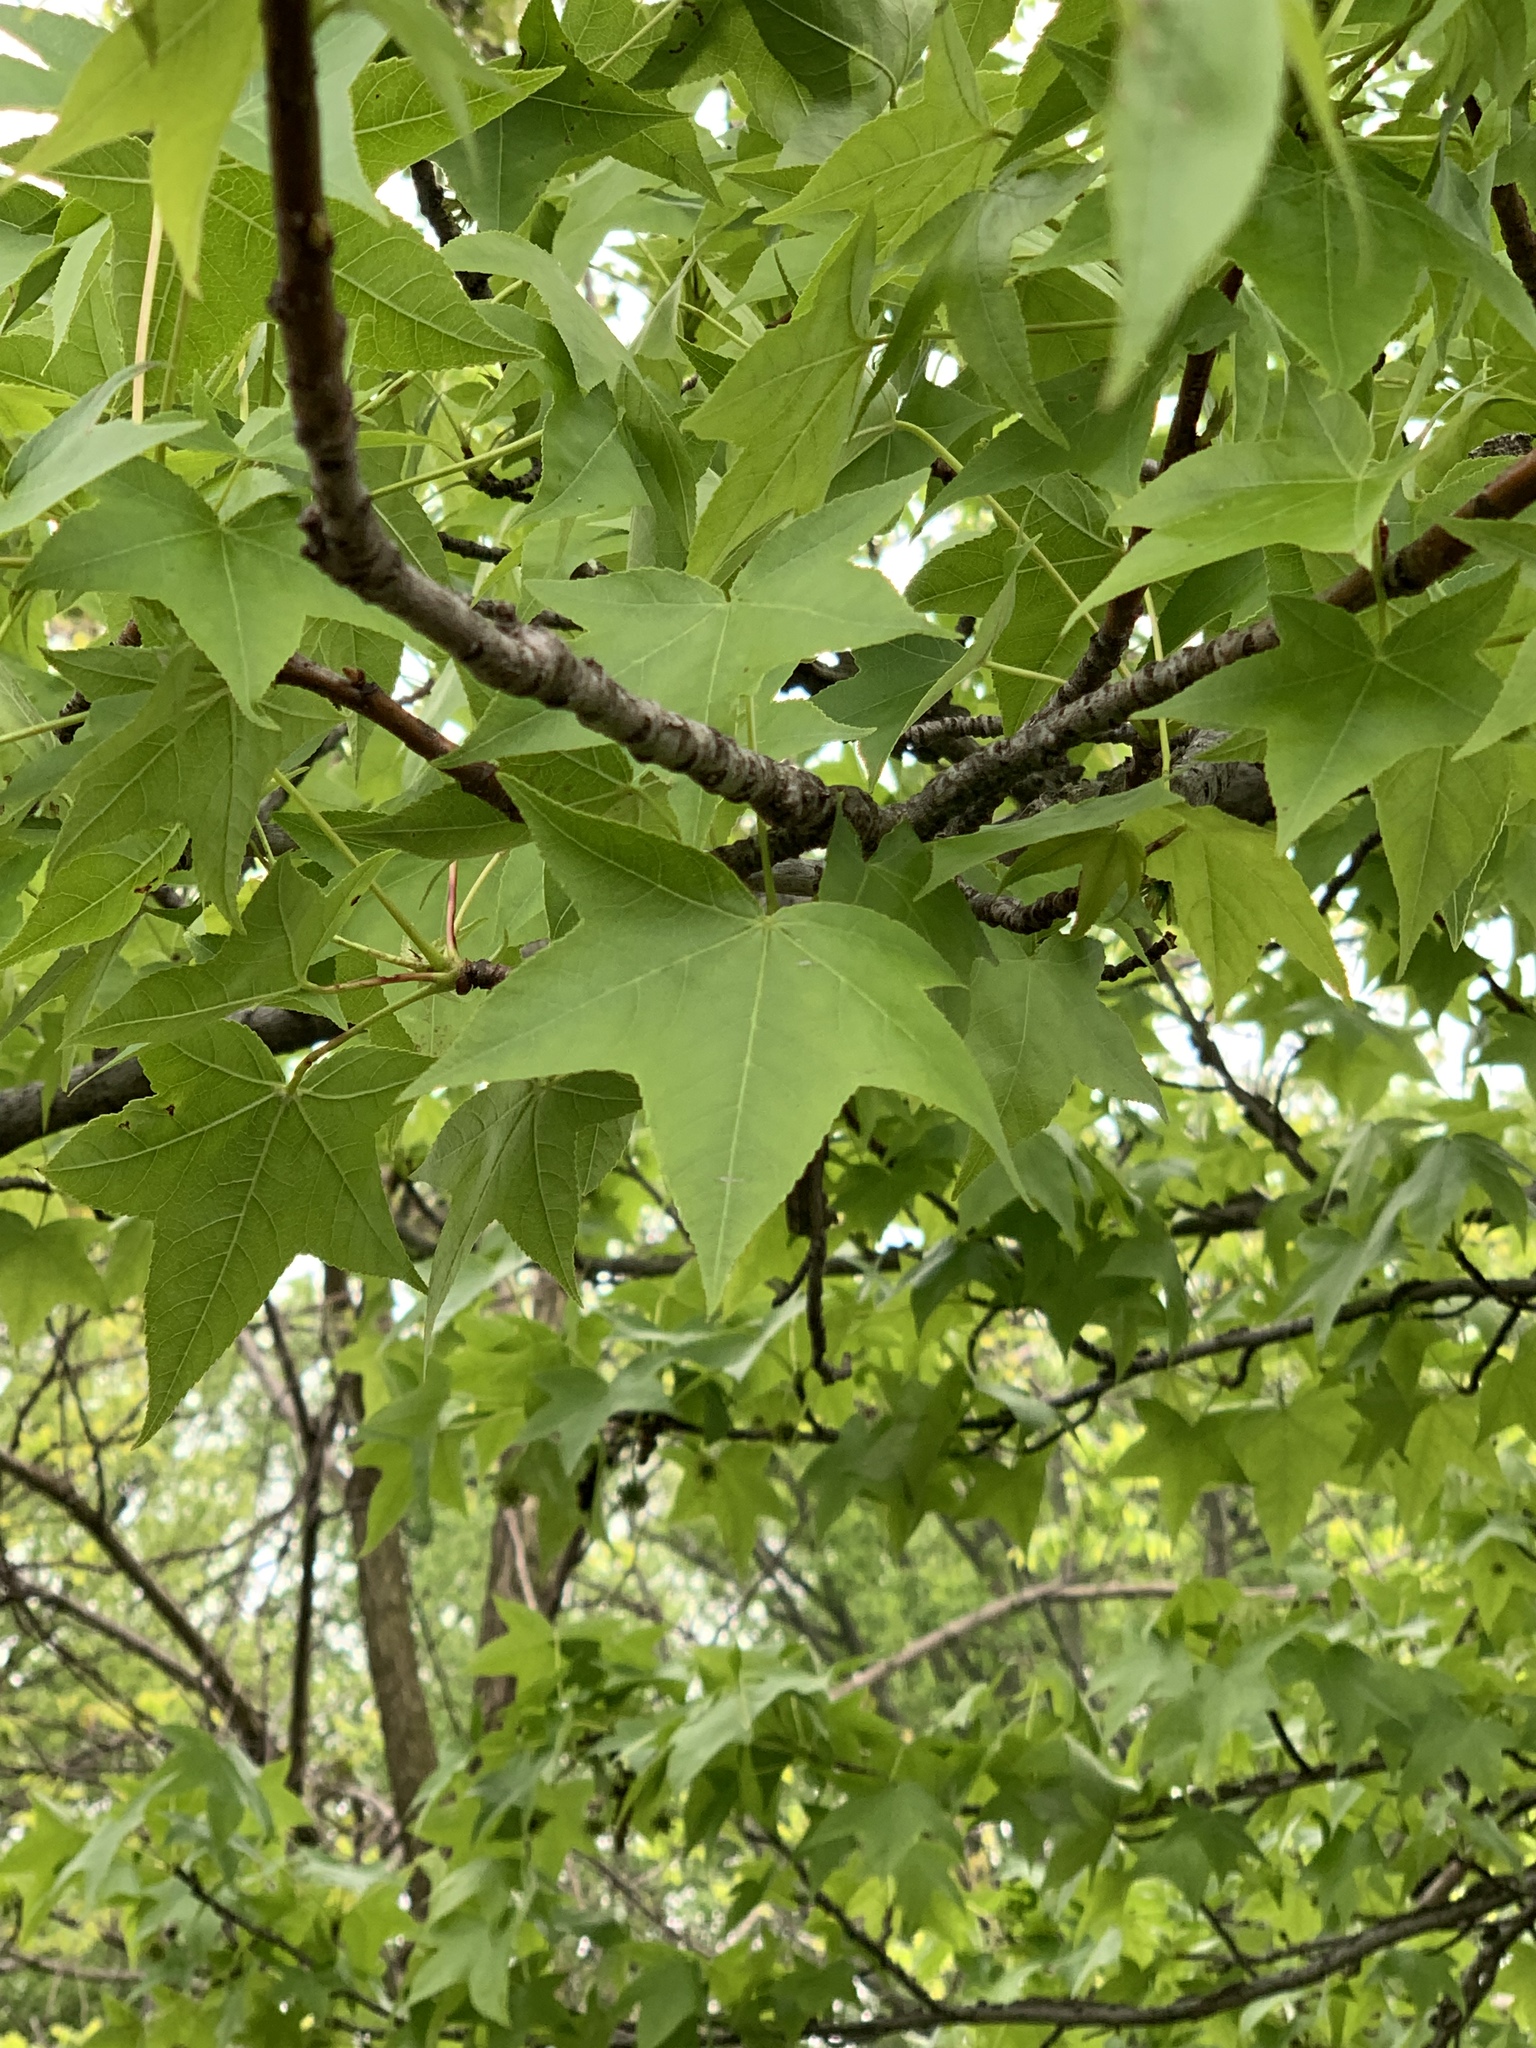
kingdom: Plantae
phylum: Tracheophyta
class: Magnoliopsida
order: Saxifragales
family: Altingiaceae
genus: Liquidambar
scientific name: Liquidambar styraciflua
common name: Sweet gum
